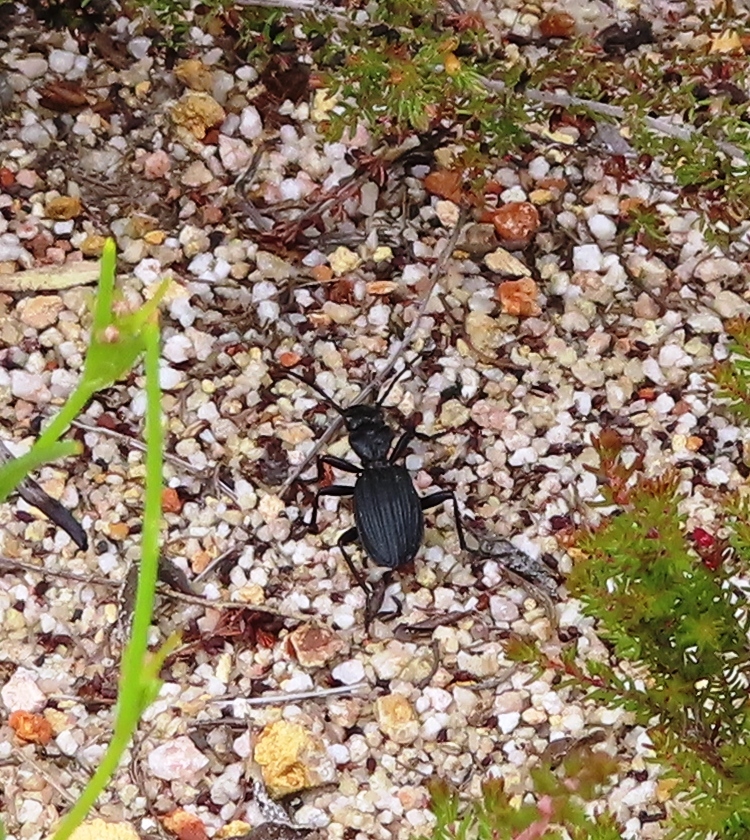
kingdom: Animalia
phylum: Arthropoda
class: Insecta
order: Coleoptera
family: Carabidae
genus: Anthia
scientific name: Anthia decemguttata
